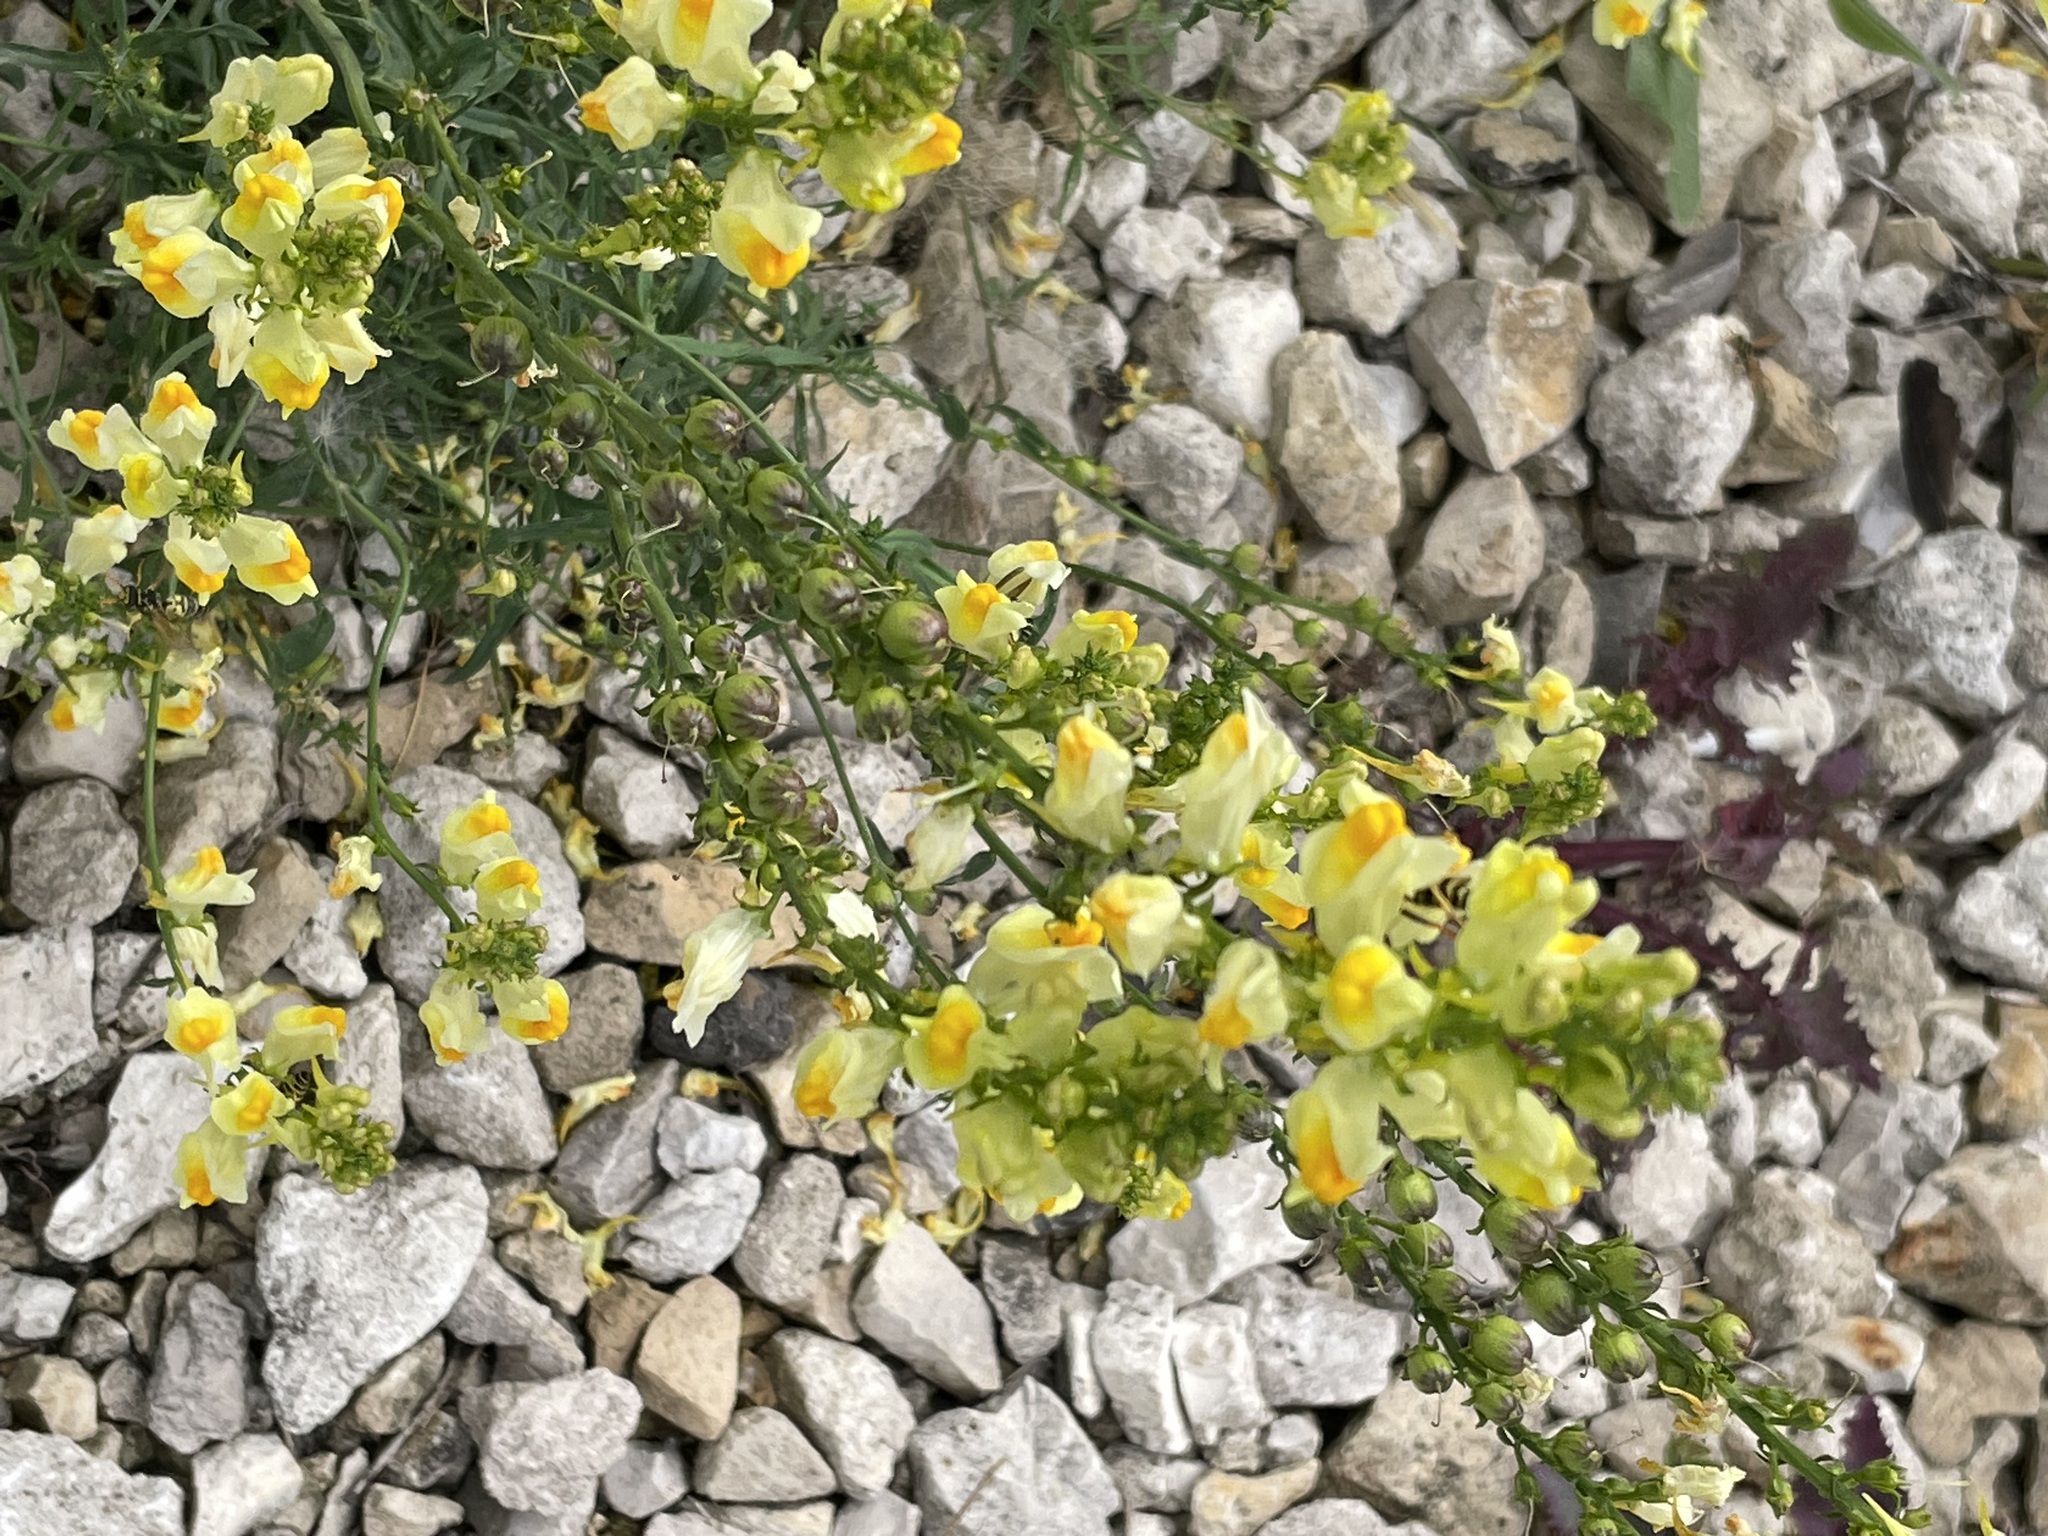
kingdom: Plantae
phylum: Tracheophyta
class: Magnoliopsida
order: Lamiales
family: Plantaginaceae
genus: Linaria
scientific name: Linaria vulgaris
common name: Butter and eggs
